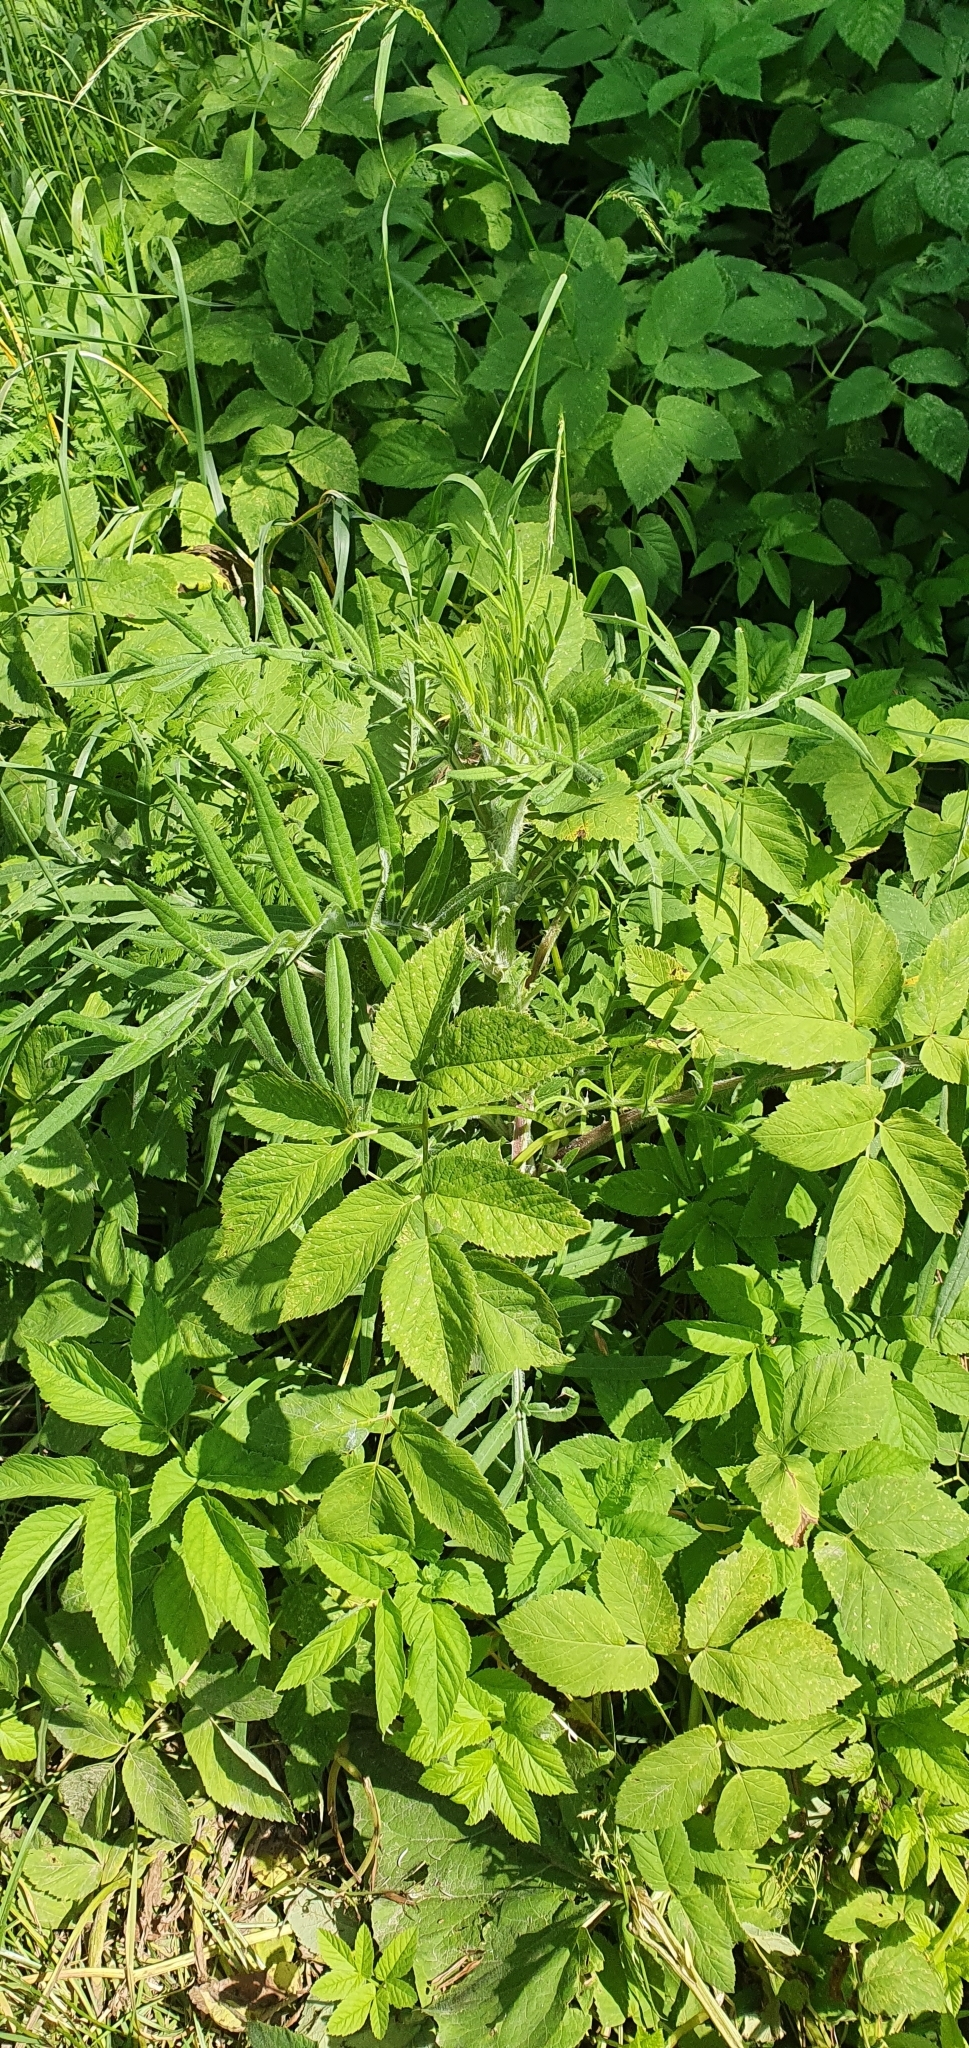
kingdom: Plantae
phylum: Tracheophyta
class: Magnoliopsida
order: Asterales
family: Asteraceae
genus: Lophiolepis
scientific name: Lophiolepis decussata
